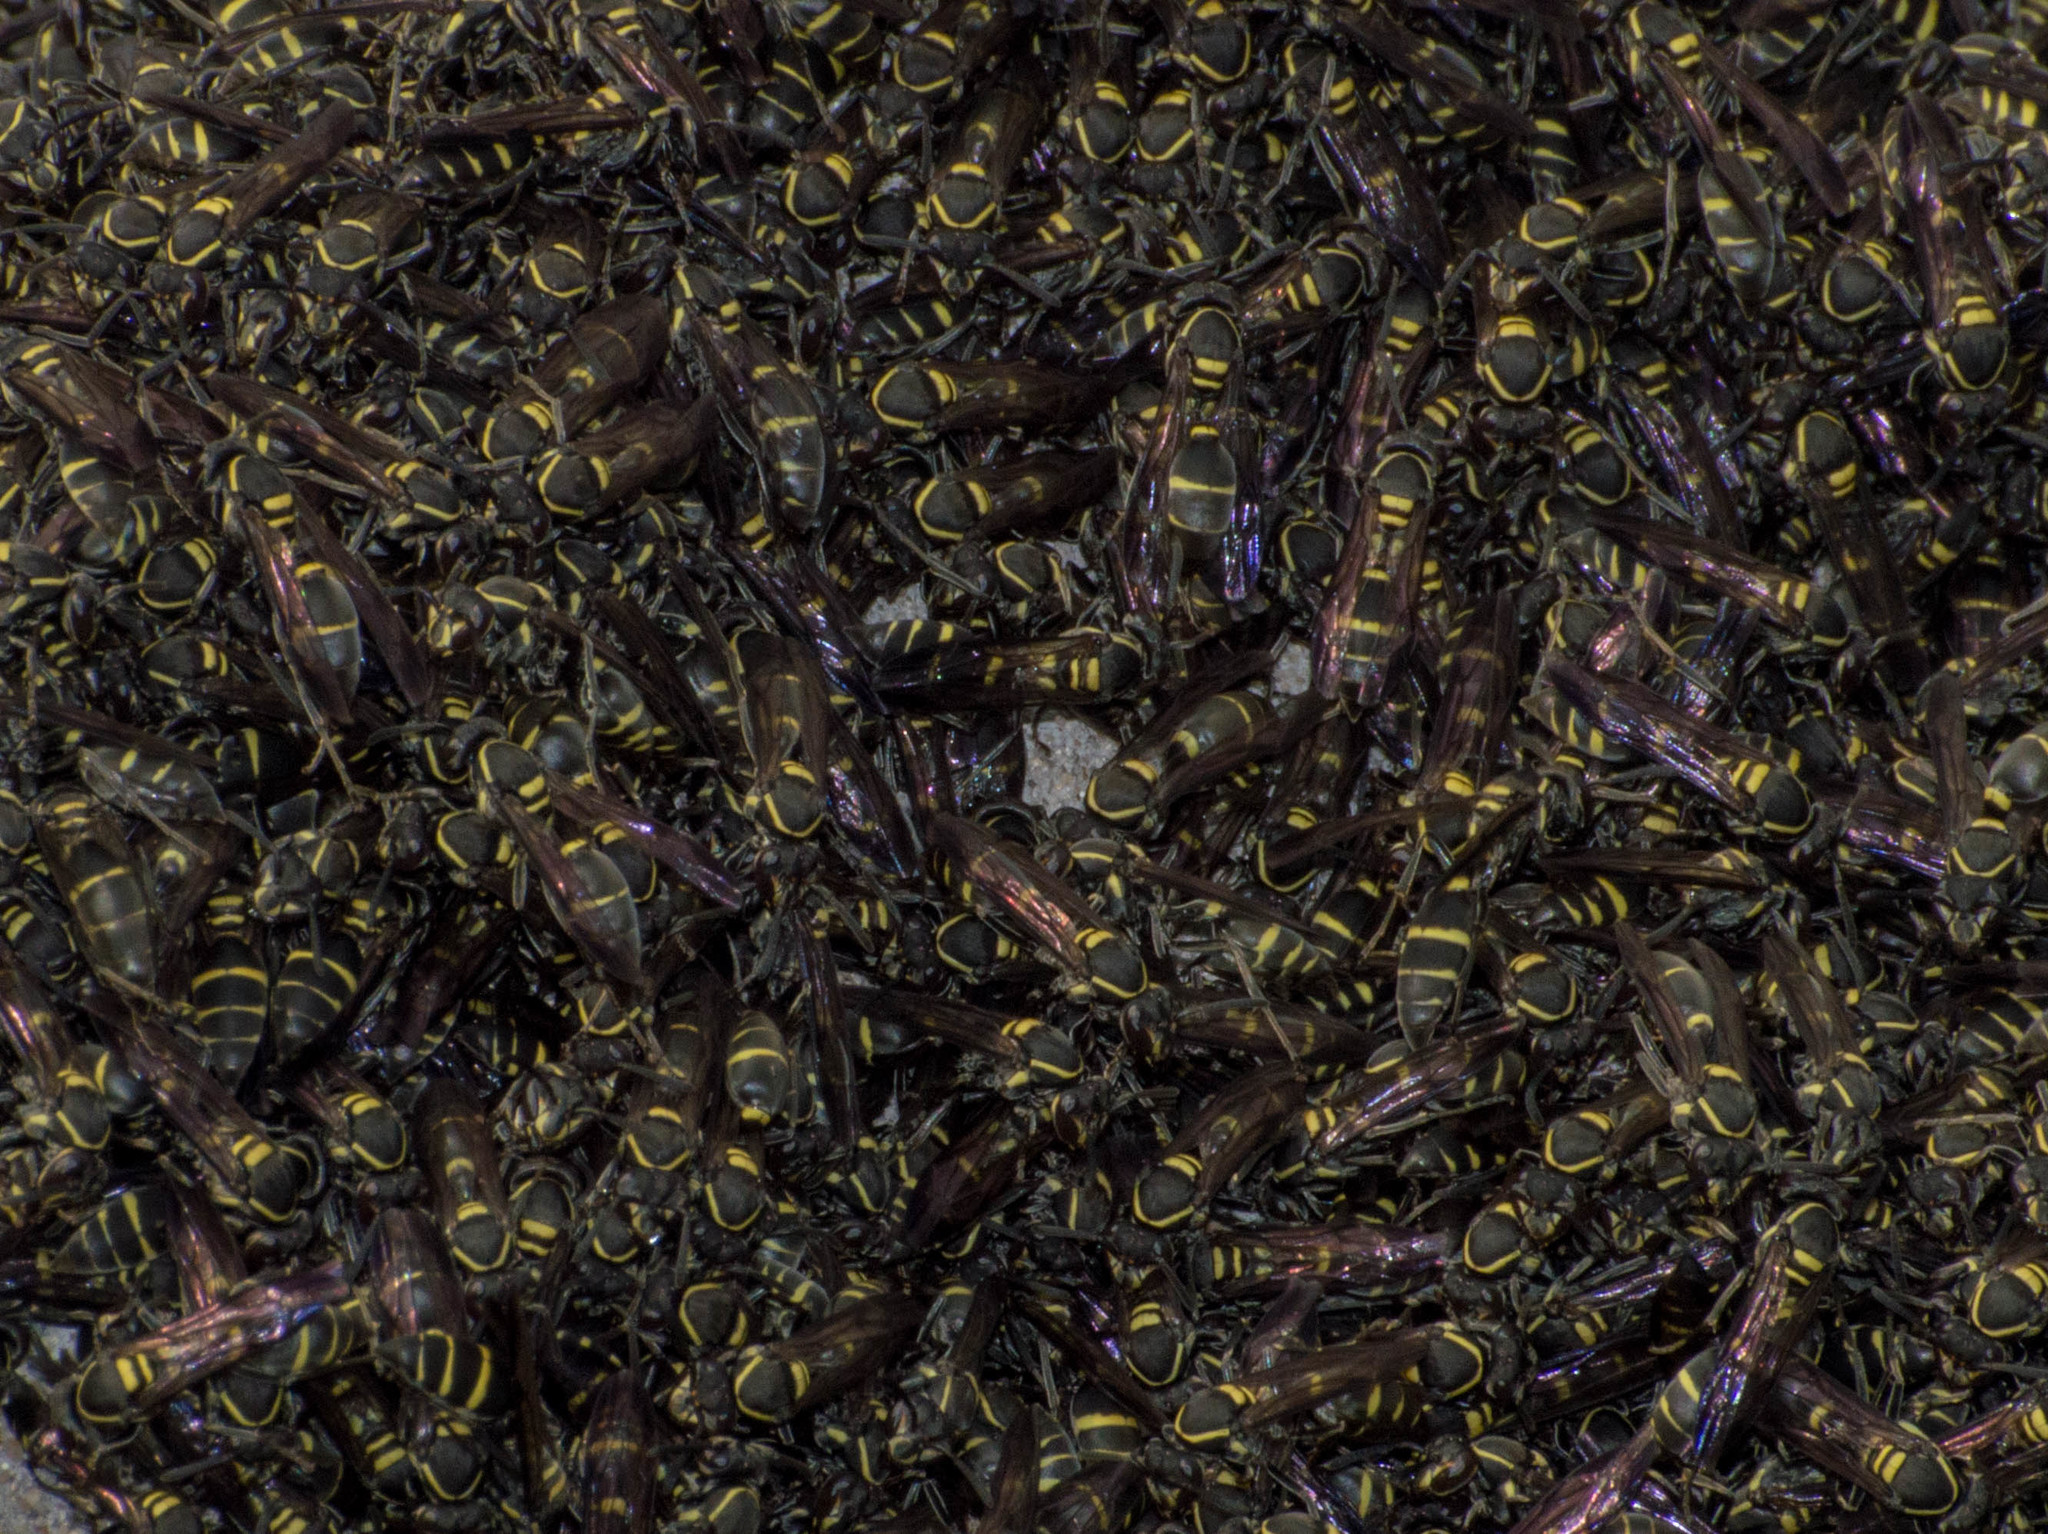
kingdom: Animalia
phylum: Arthropoda
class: Insecta
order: Hymenoptera
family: Eumenidae
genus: Polybia
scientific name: Polybia occidentalis
